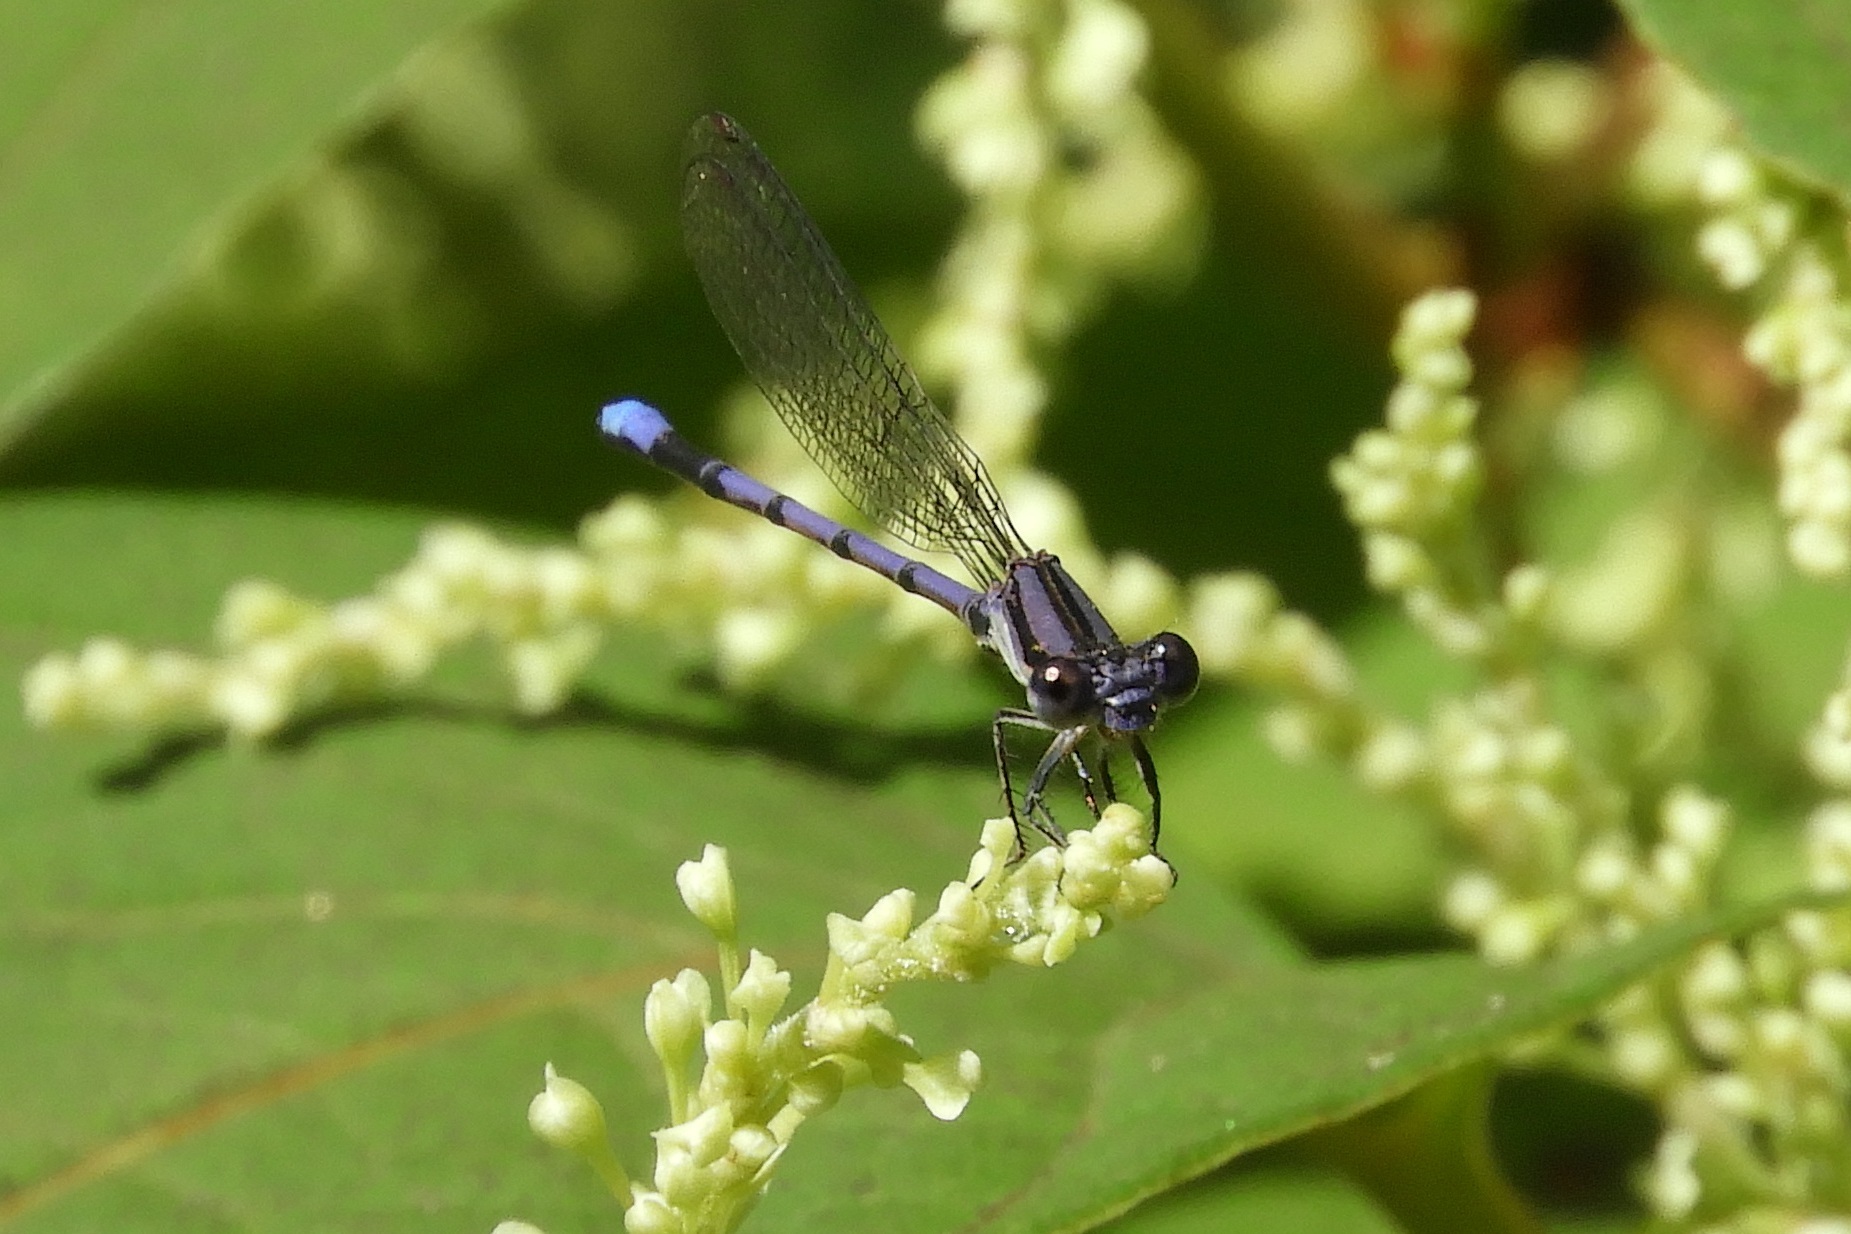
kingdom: Animalia
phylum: Arthropoda
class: Insecta
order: Odonata
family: Coenagrionidae
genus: Argia
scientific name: Argia fumipennis
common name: Variable dancer
